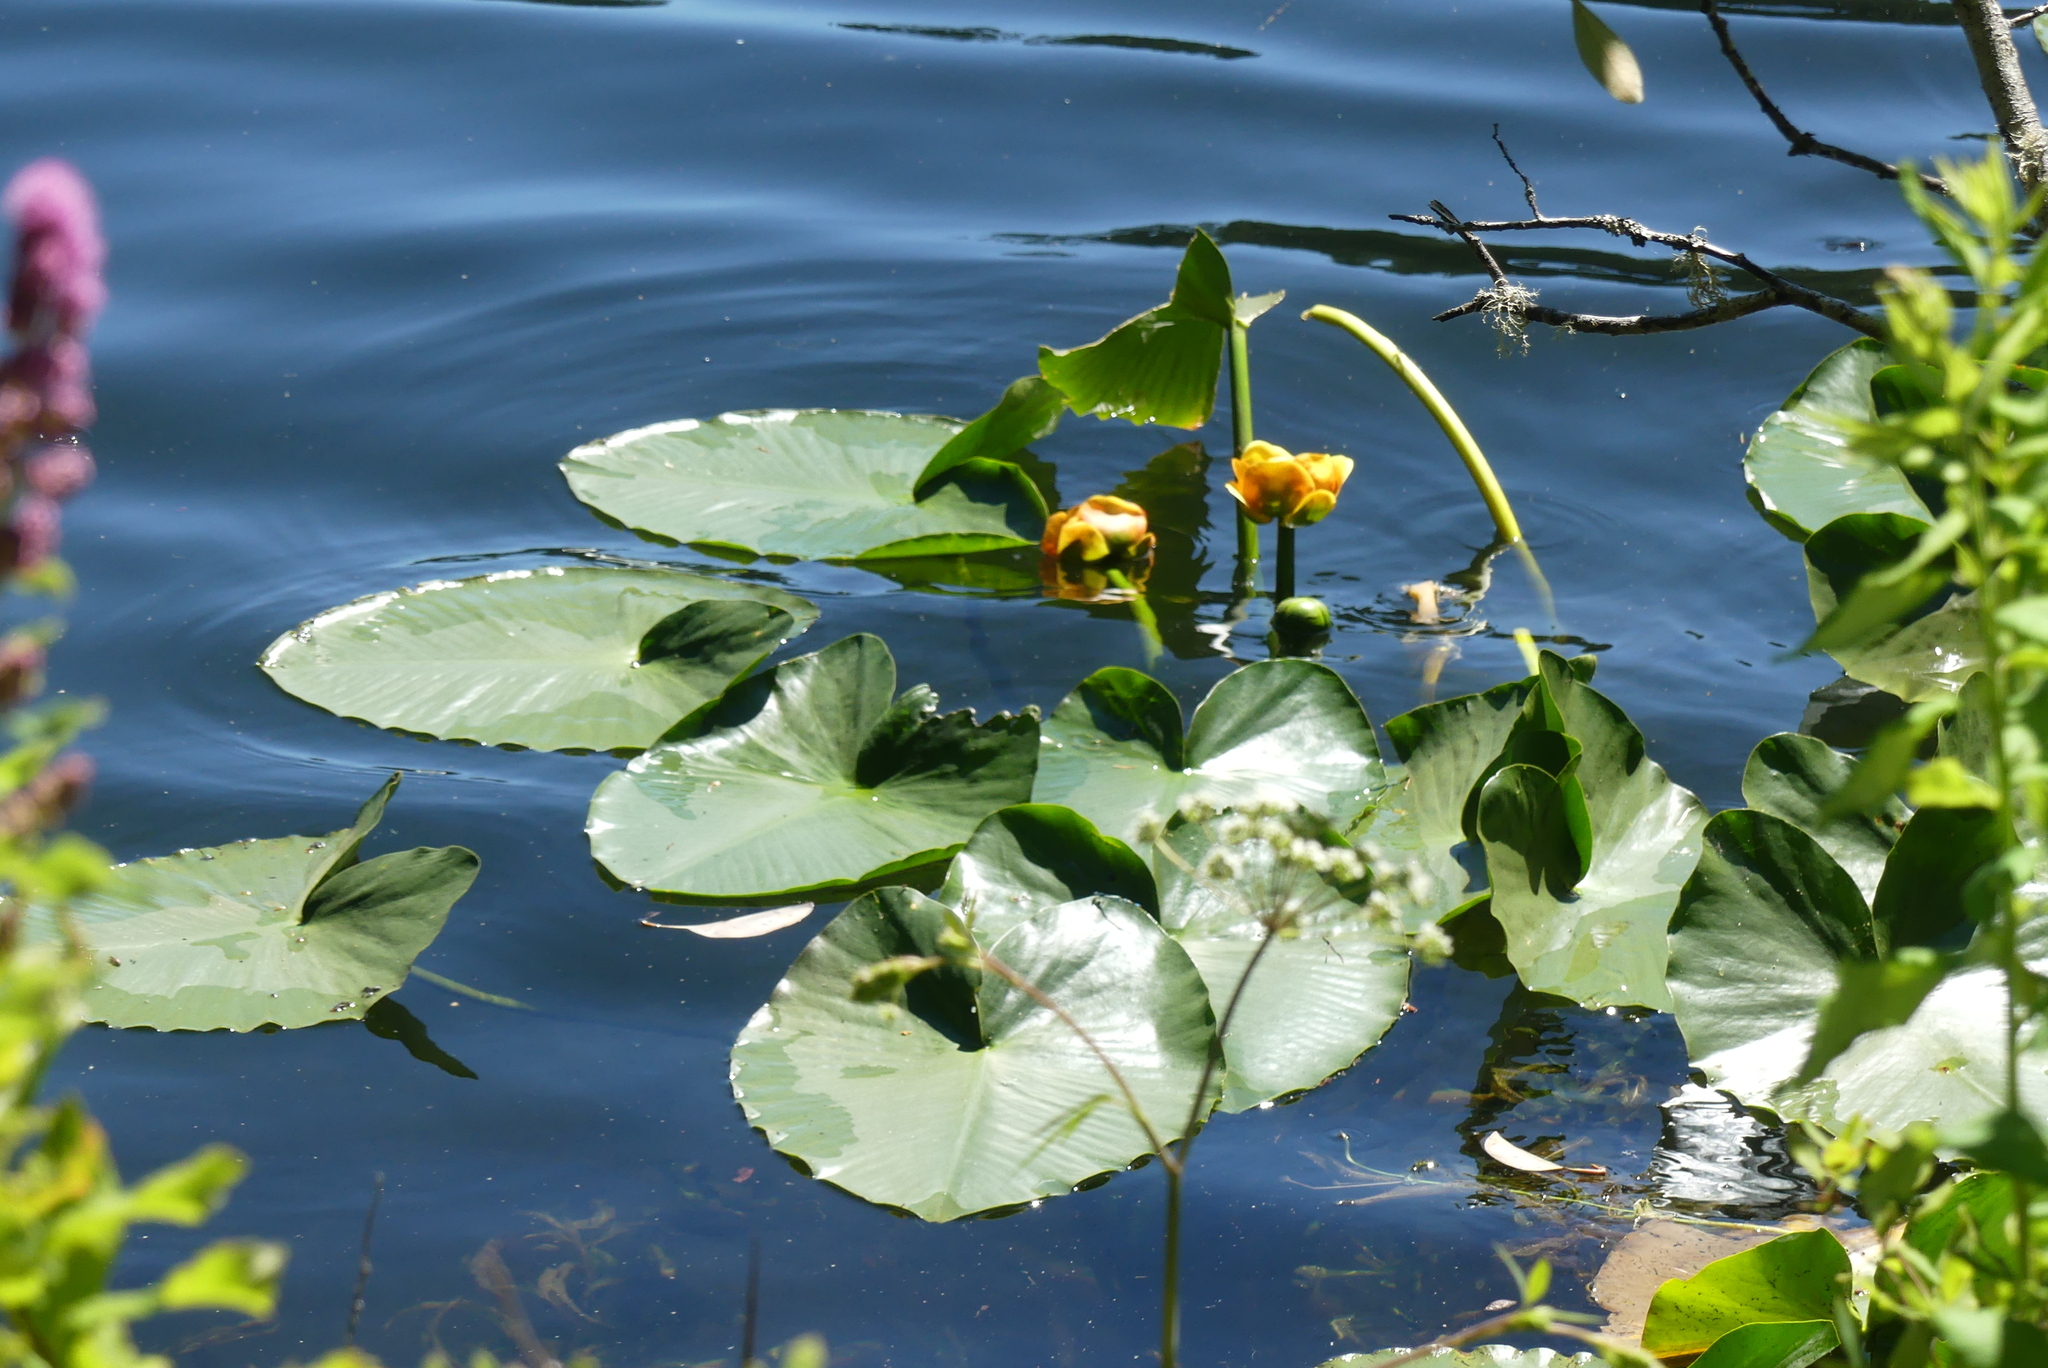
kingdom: Plantae
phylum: Tracheophyta
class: Magnoliopsida
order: Nymphaeales
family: Nymphaeaceae
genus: Nuphar
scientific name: Nuphar polysepala
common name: Rocky mountain cow-lily
